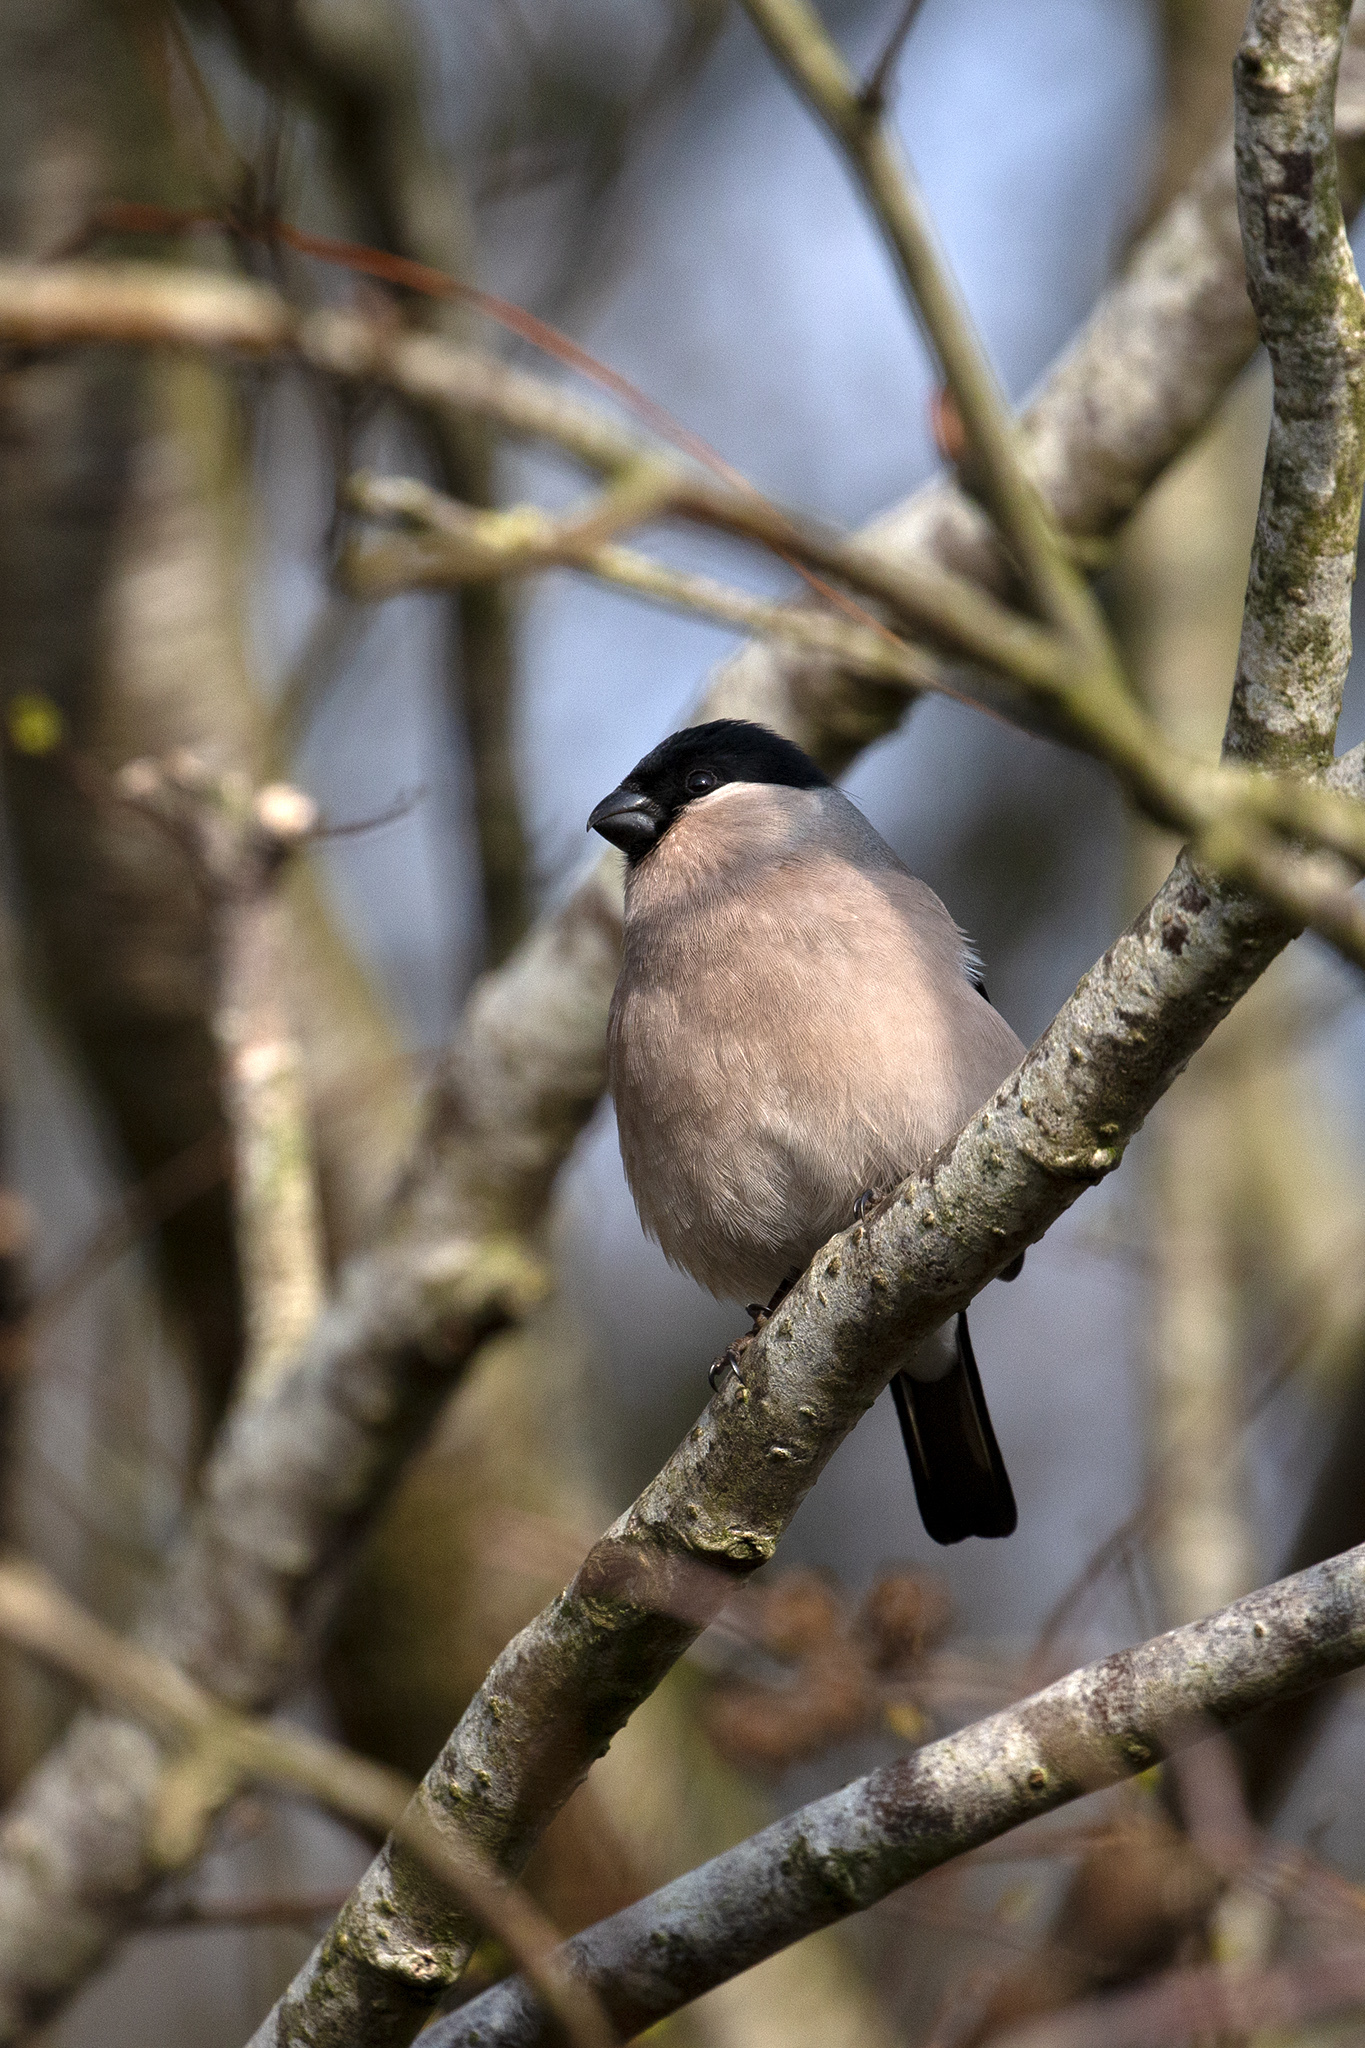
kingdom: Animalia
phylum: Chordata
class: Aves
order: Passeriformes
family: Fringillidae
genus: Pyrrhula
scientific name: Pyrrhula pyrrhula
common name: Eurasian bullfinch
